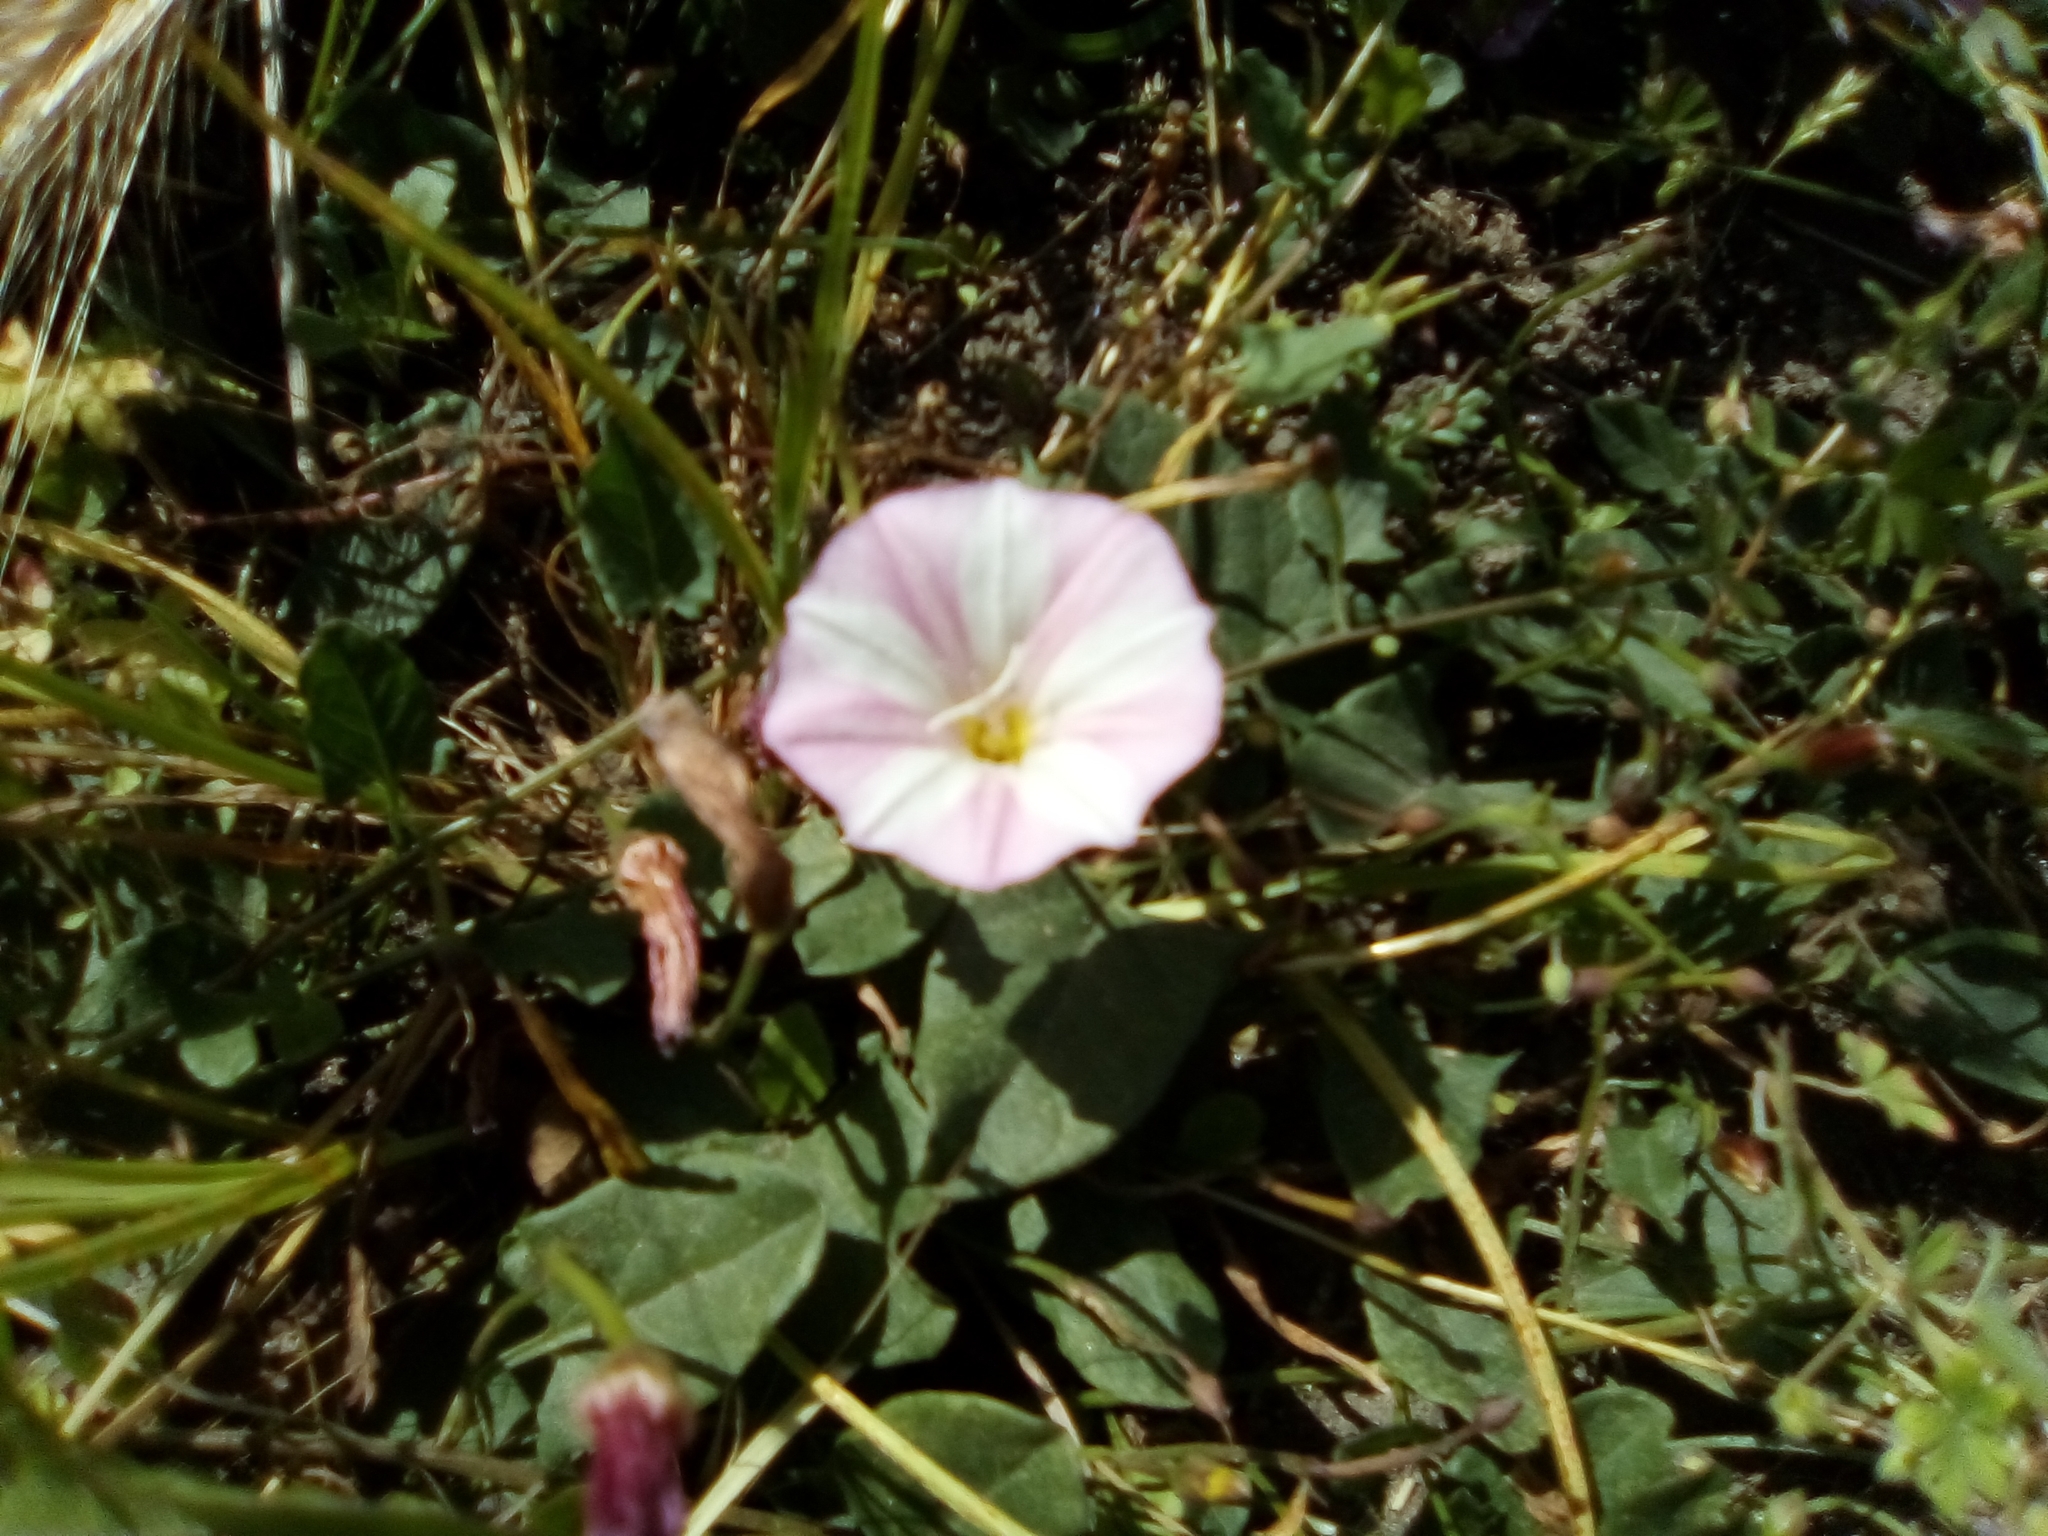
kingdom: Plantae
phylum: Tracheophyta
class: Magnoliopsida
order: Solanales
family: Convolvulaceae
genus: Convolvulus
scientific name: Convolvulus arvensis
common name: Field bindweed
